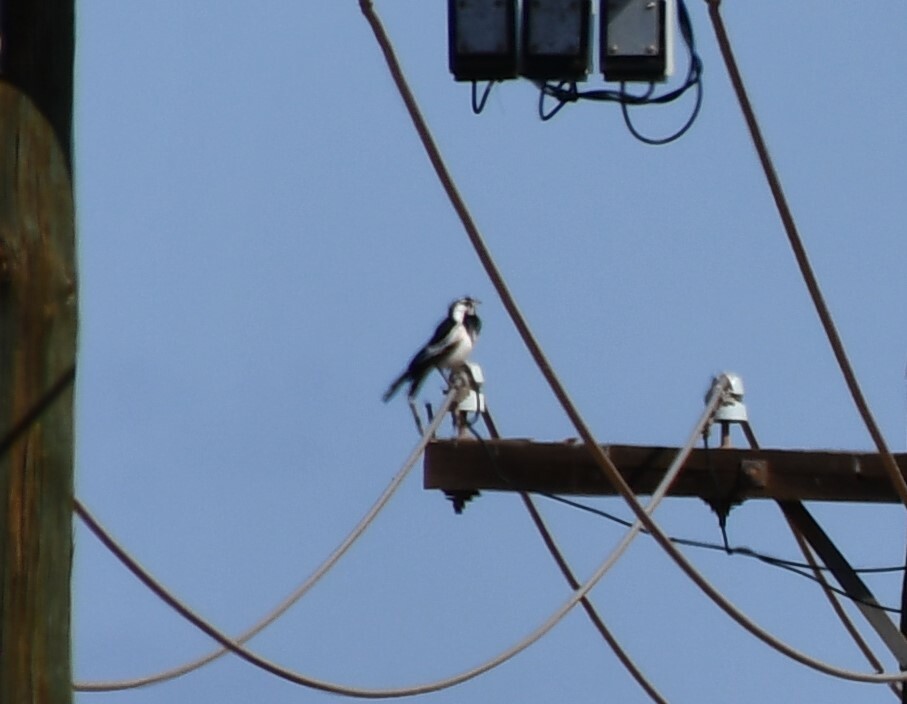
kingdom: Animalia
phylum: Chordata
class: Aves
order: Passeriformes
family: Monarchidae
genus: Grallina
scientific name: Grallina cyanoleuca
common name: Magpie-lark
